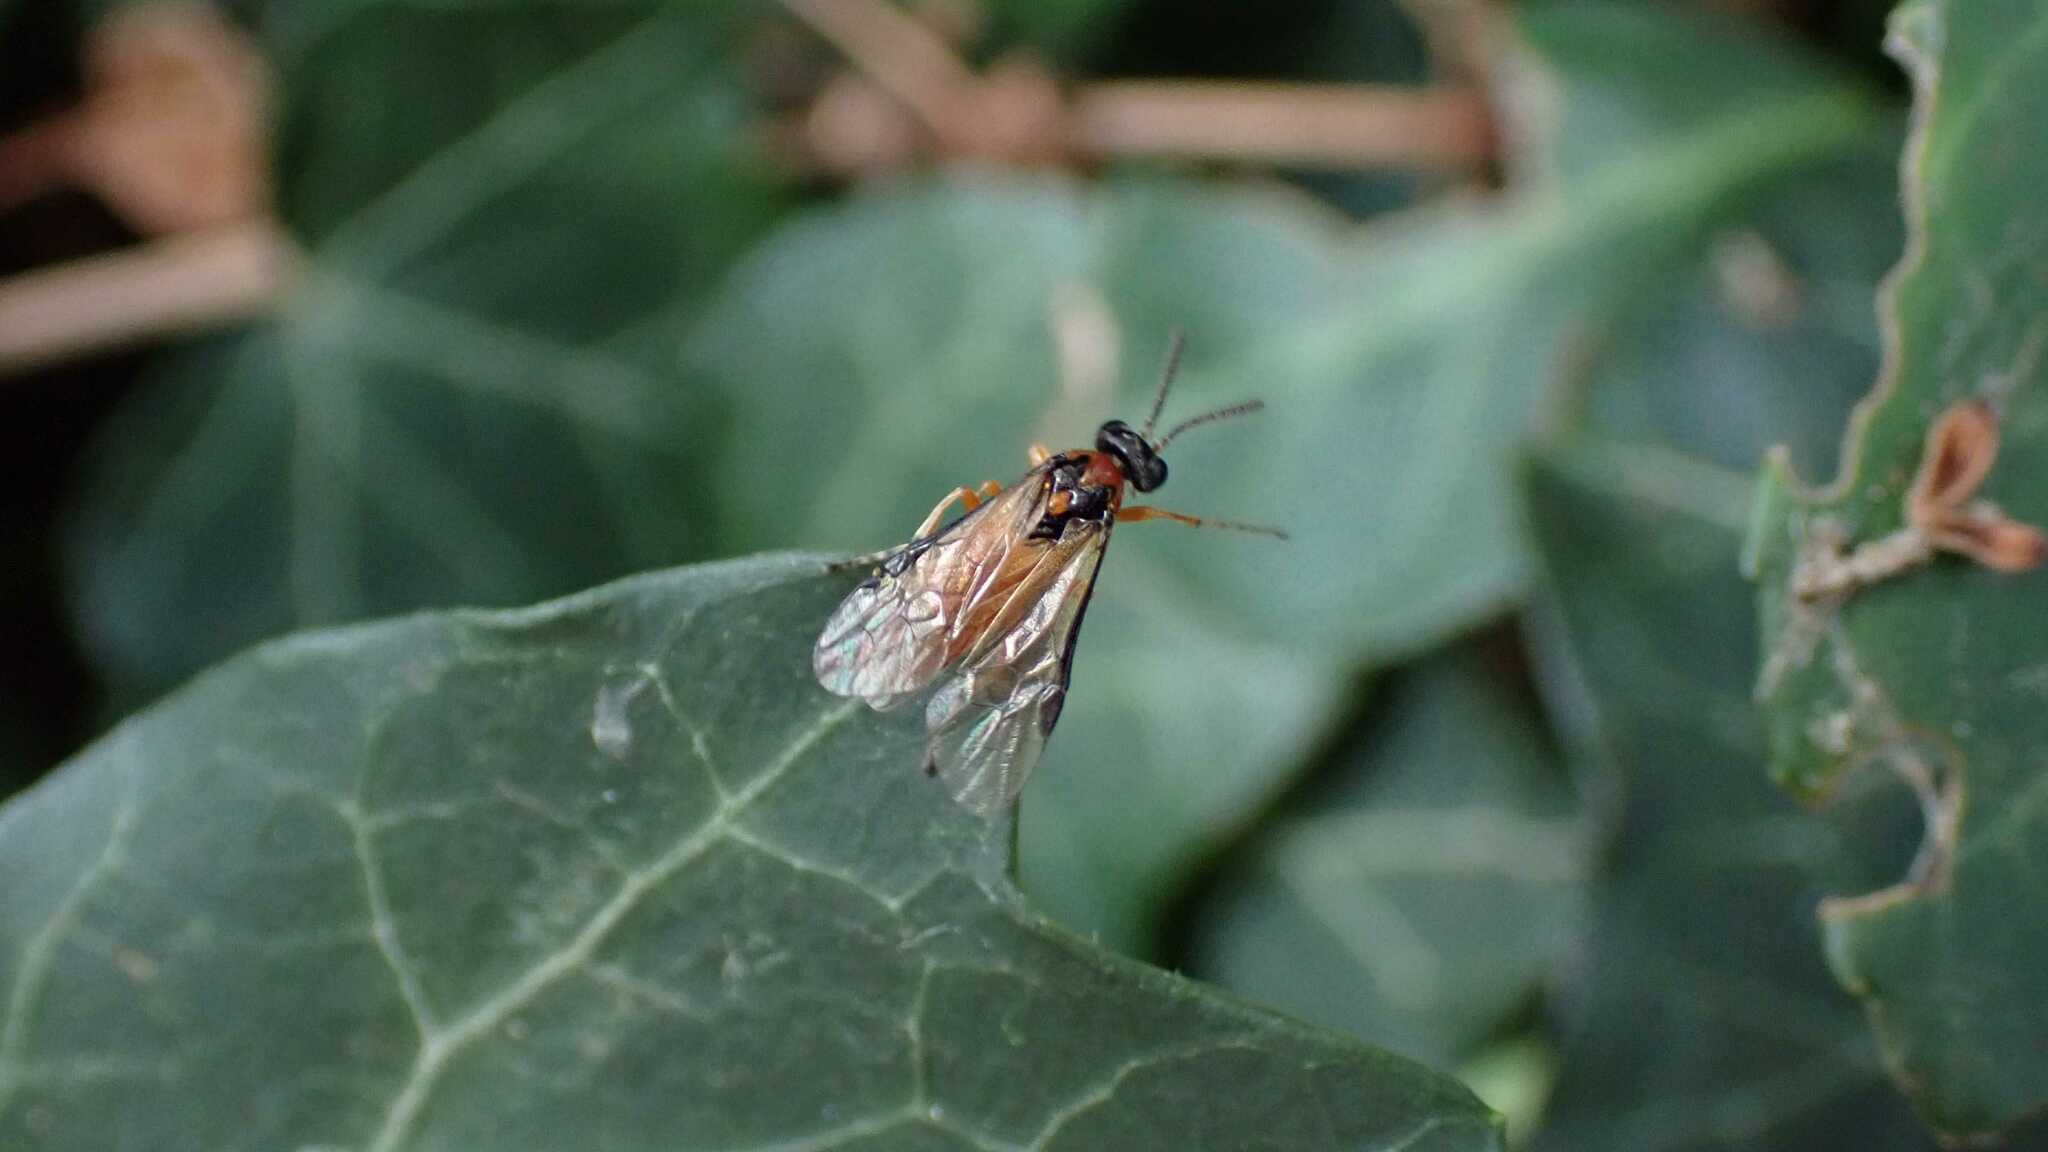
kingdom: Animalia
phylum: Arthropoda
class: Insecta
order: Hymenoptera
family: Tenthredinidae
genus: Athalia
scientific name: Athalia rosae
